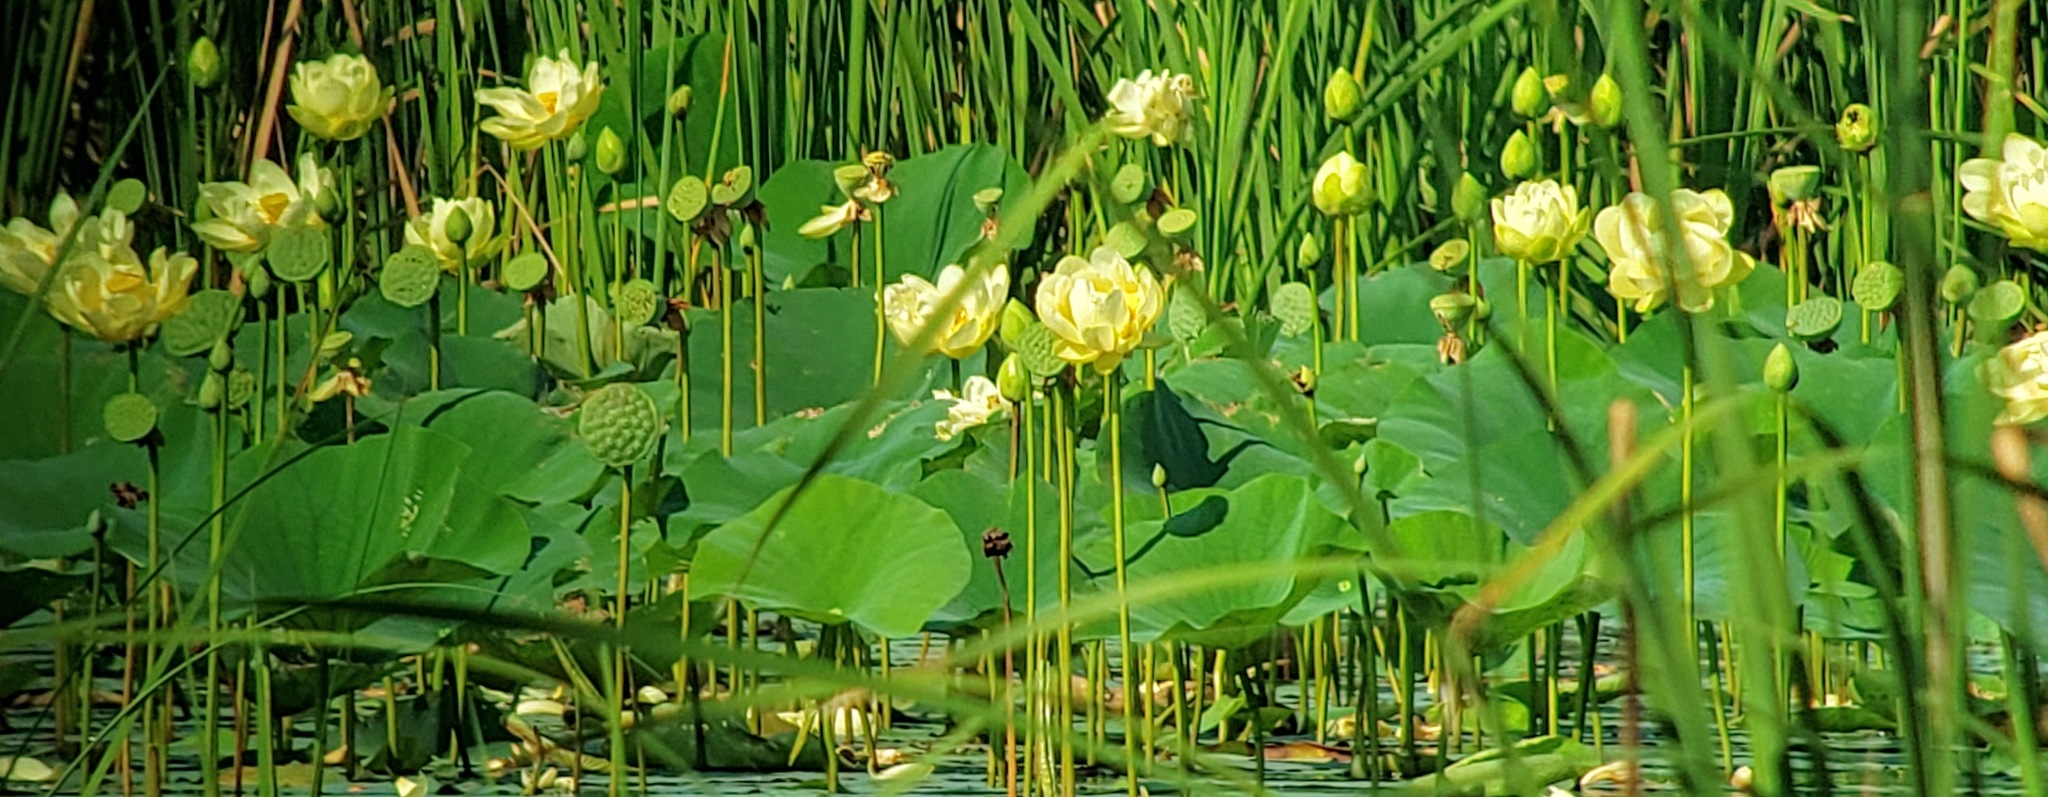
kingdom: Plantae
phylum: Tracheophyta
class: Magnoliopsida
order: Proteales
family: Nelumbonaceae
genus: Nelumbo
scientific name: Nelumbo lutea
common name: American lotus
